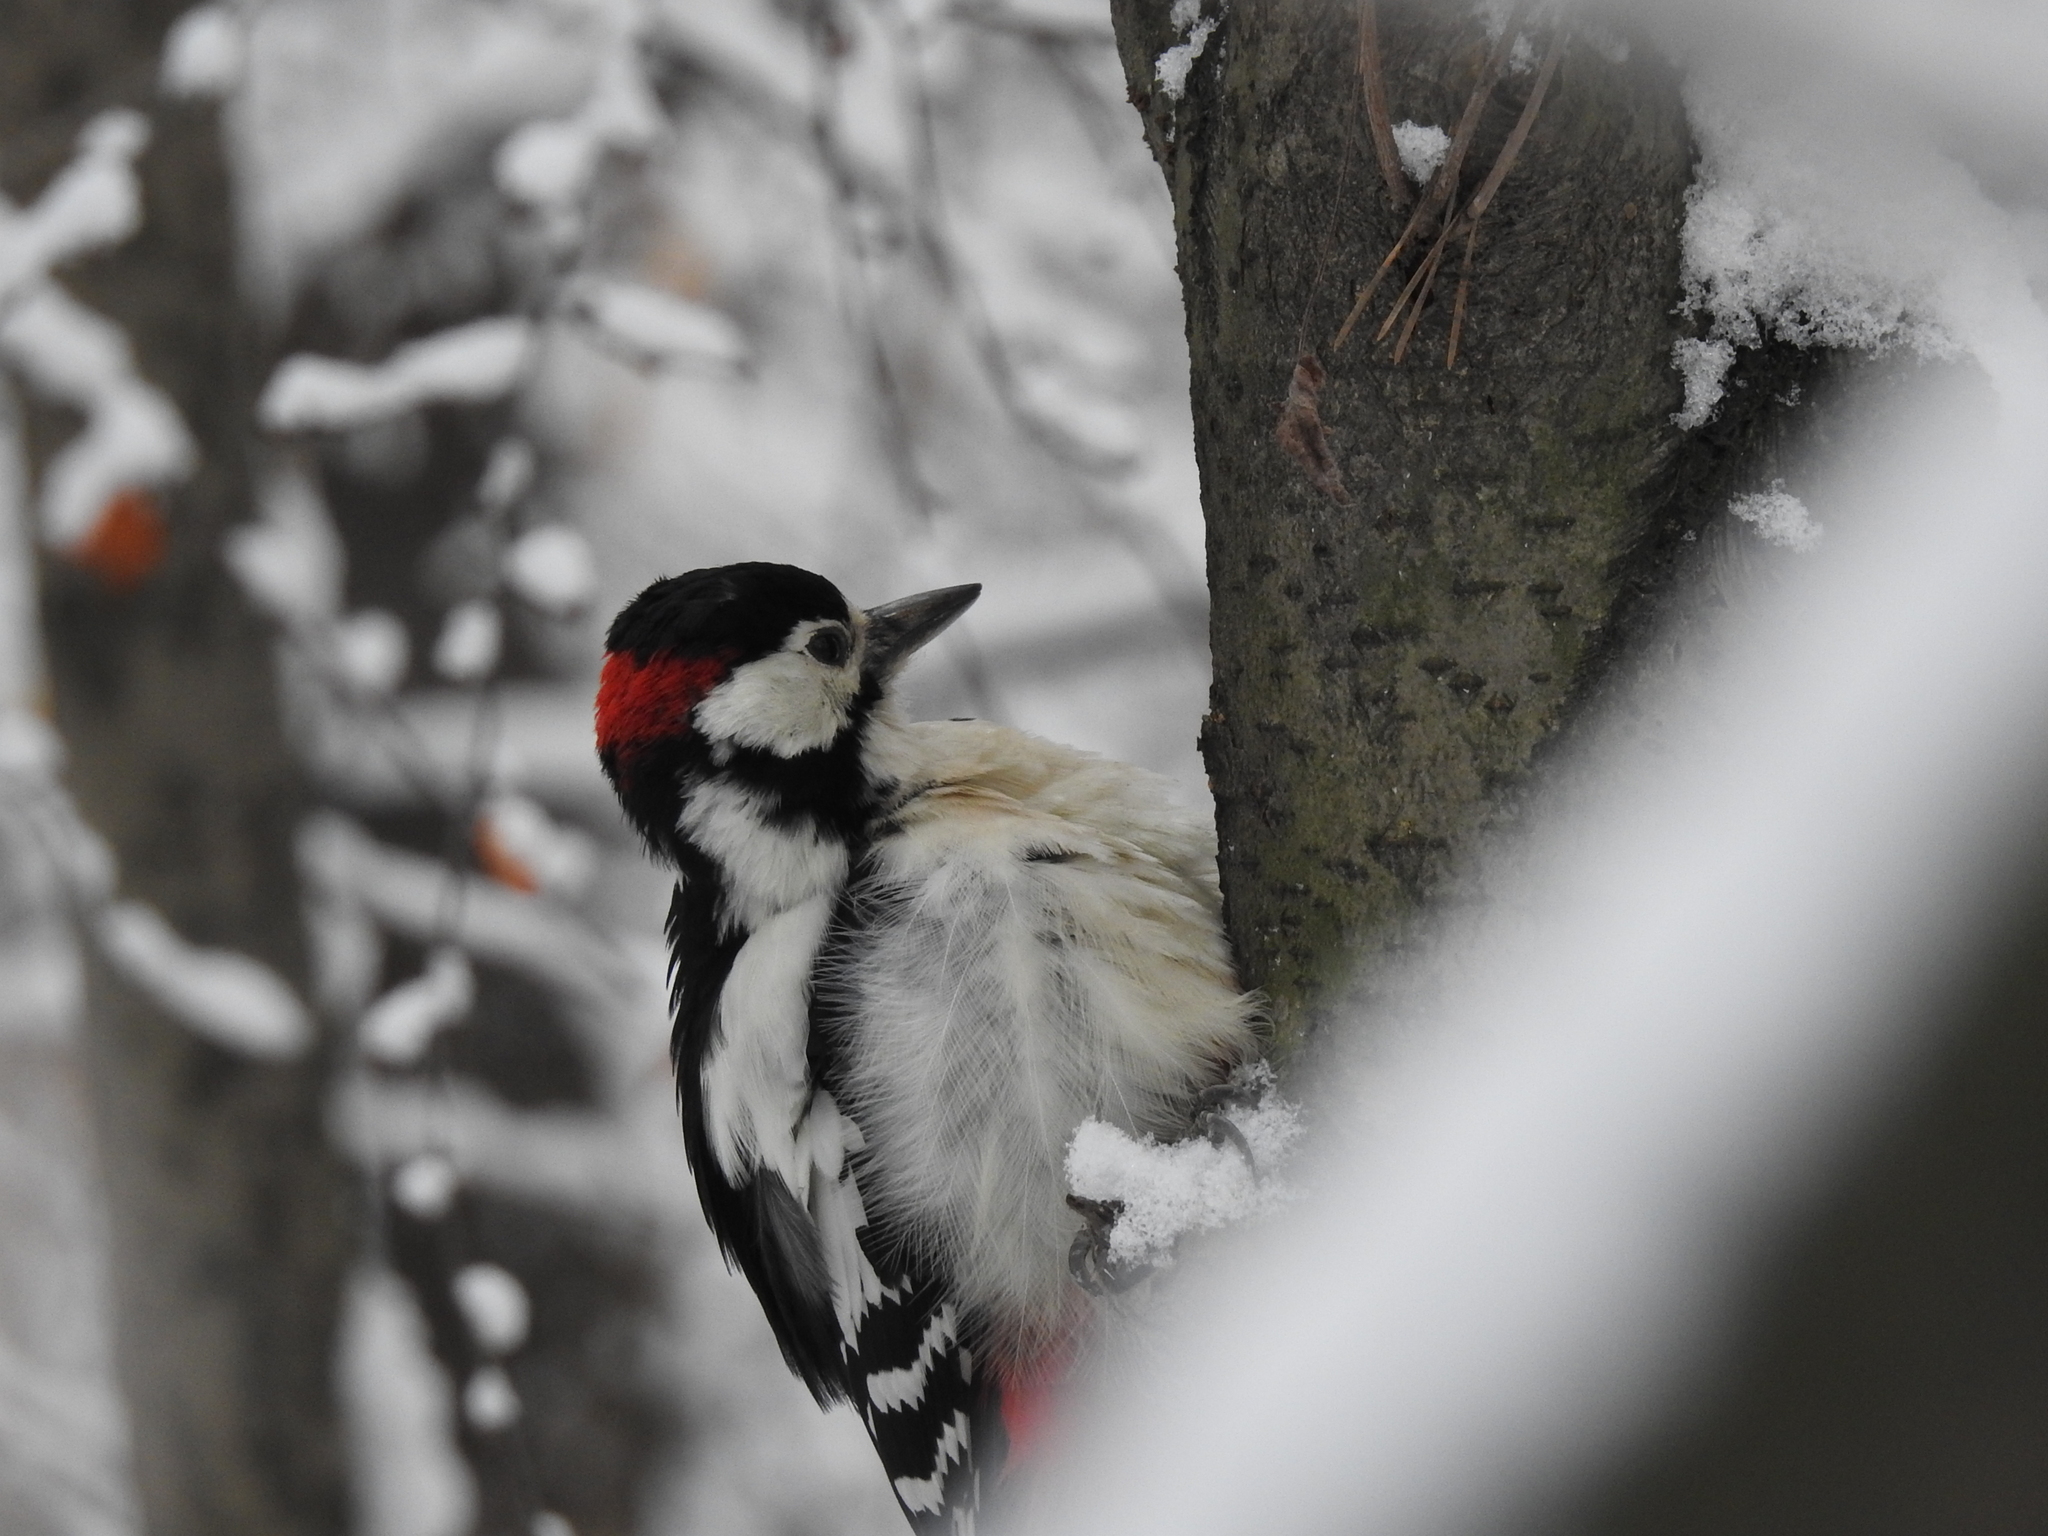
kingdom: Animalia
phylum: Chordata
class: Aves
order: Piciformes
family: Picidae
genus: Dendrocopos
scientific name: Dendrocopos major
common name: Great spotted woodpecker
